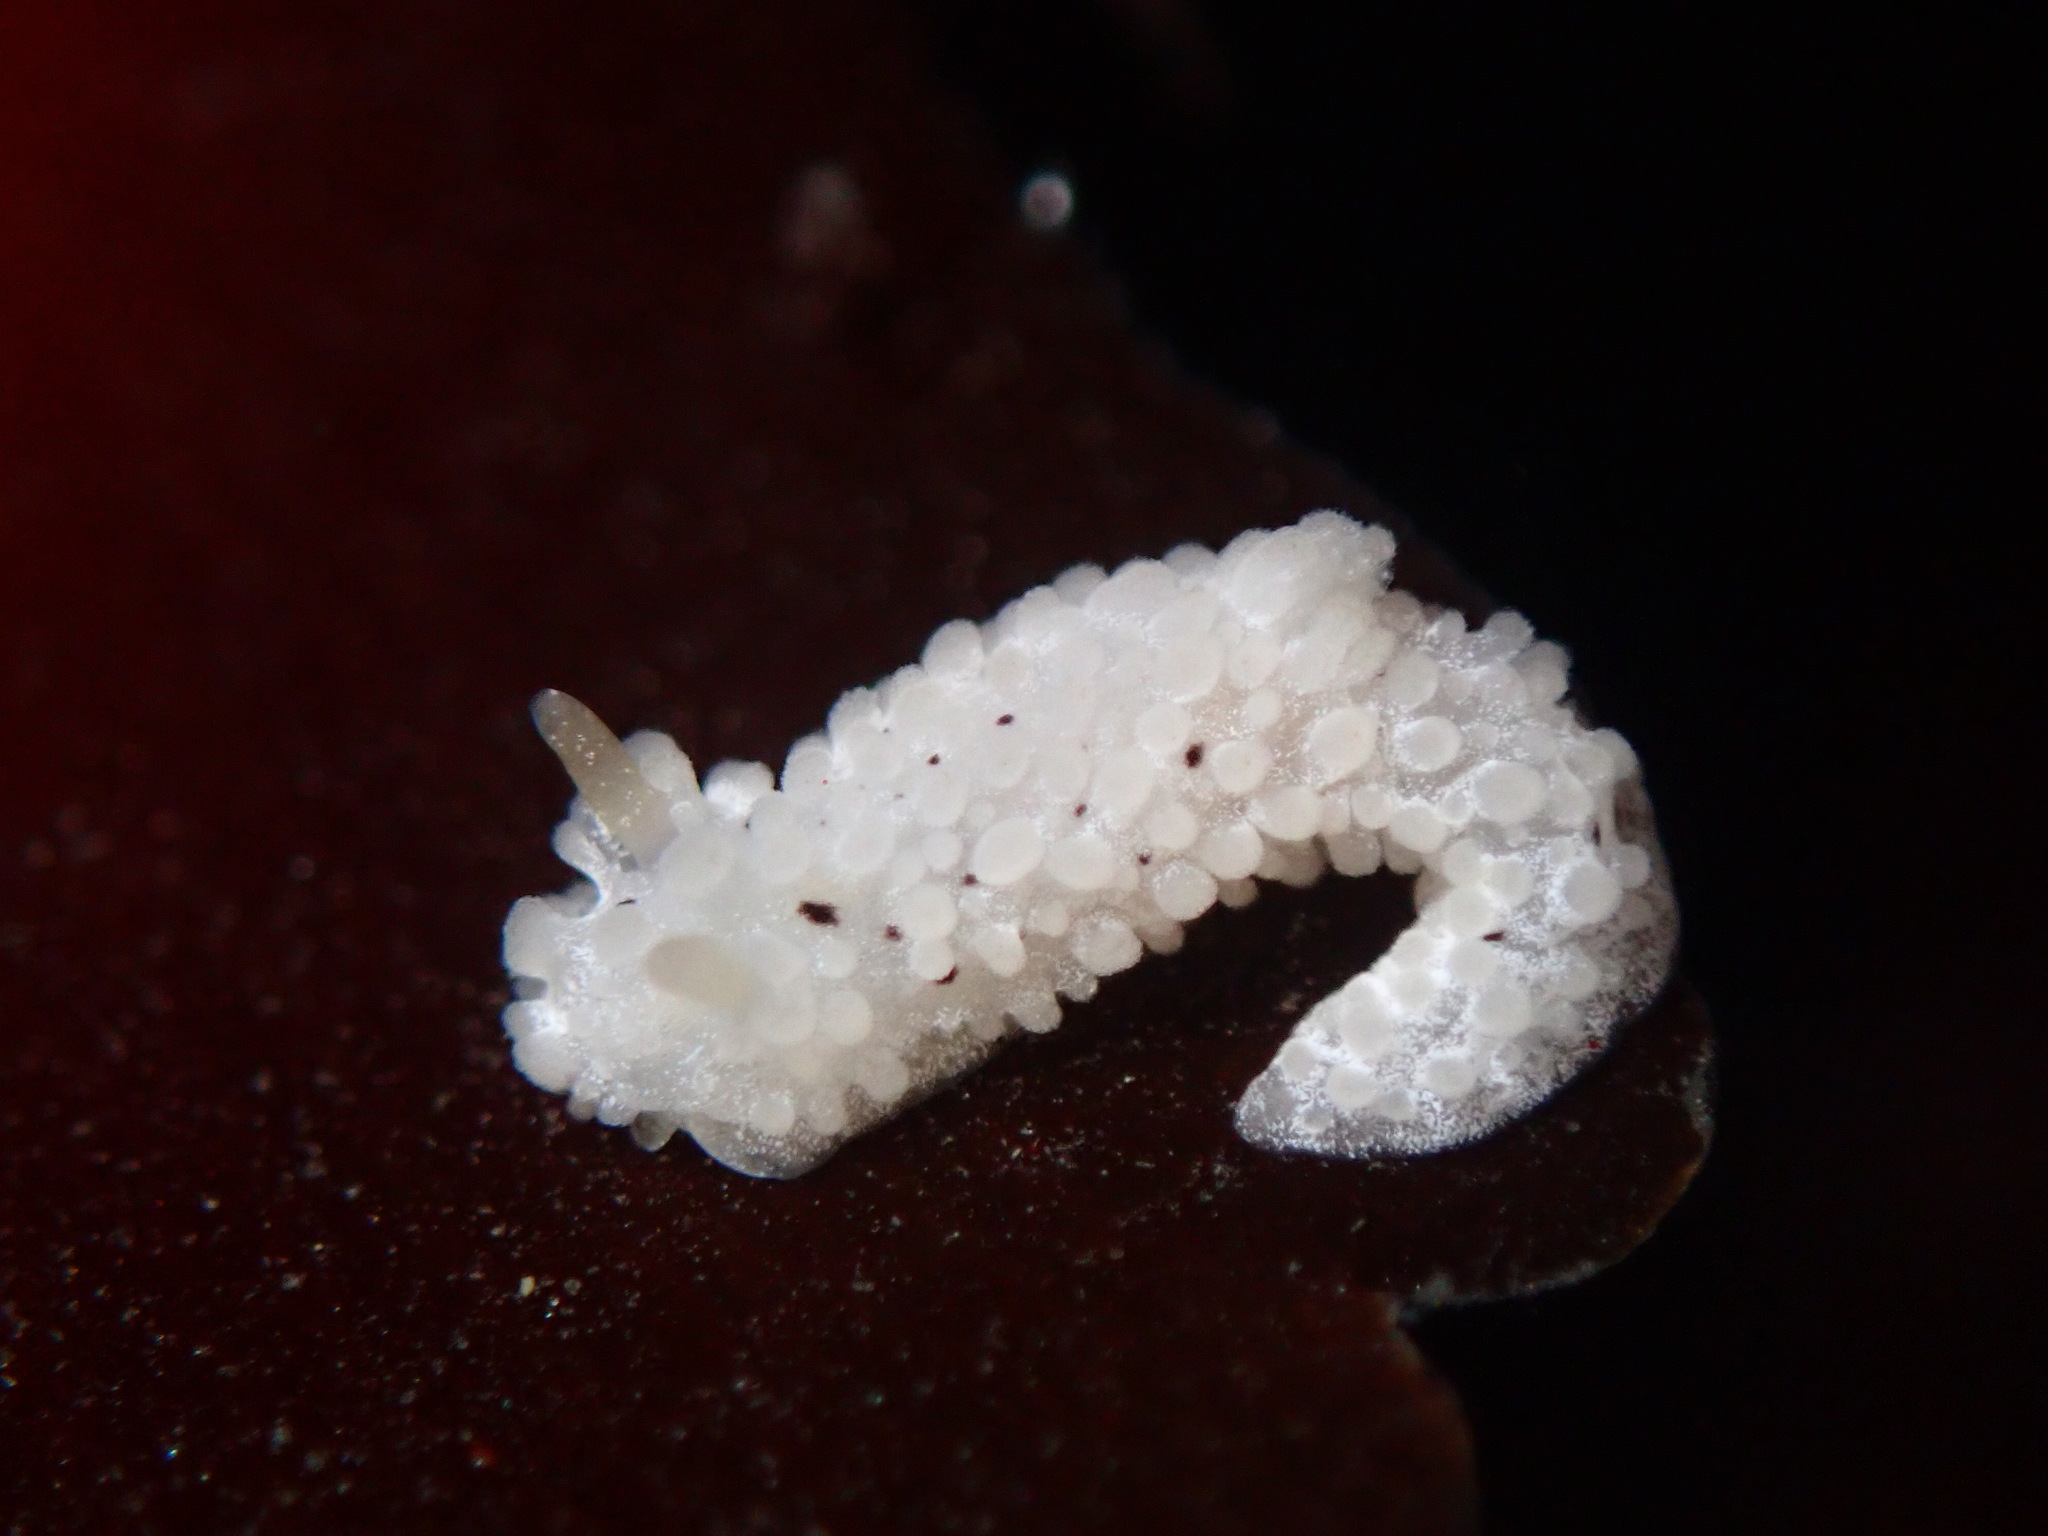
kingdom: Animalia
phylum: Mollusca
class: Gastropoda
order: Nudibranchia
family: Aegiridae
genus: Aegires
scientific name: Aegires albopunctatus
